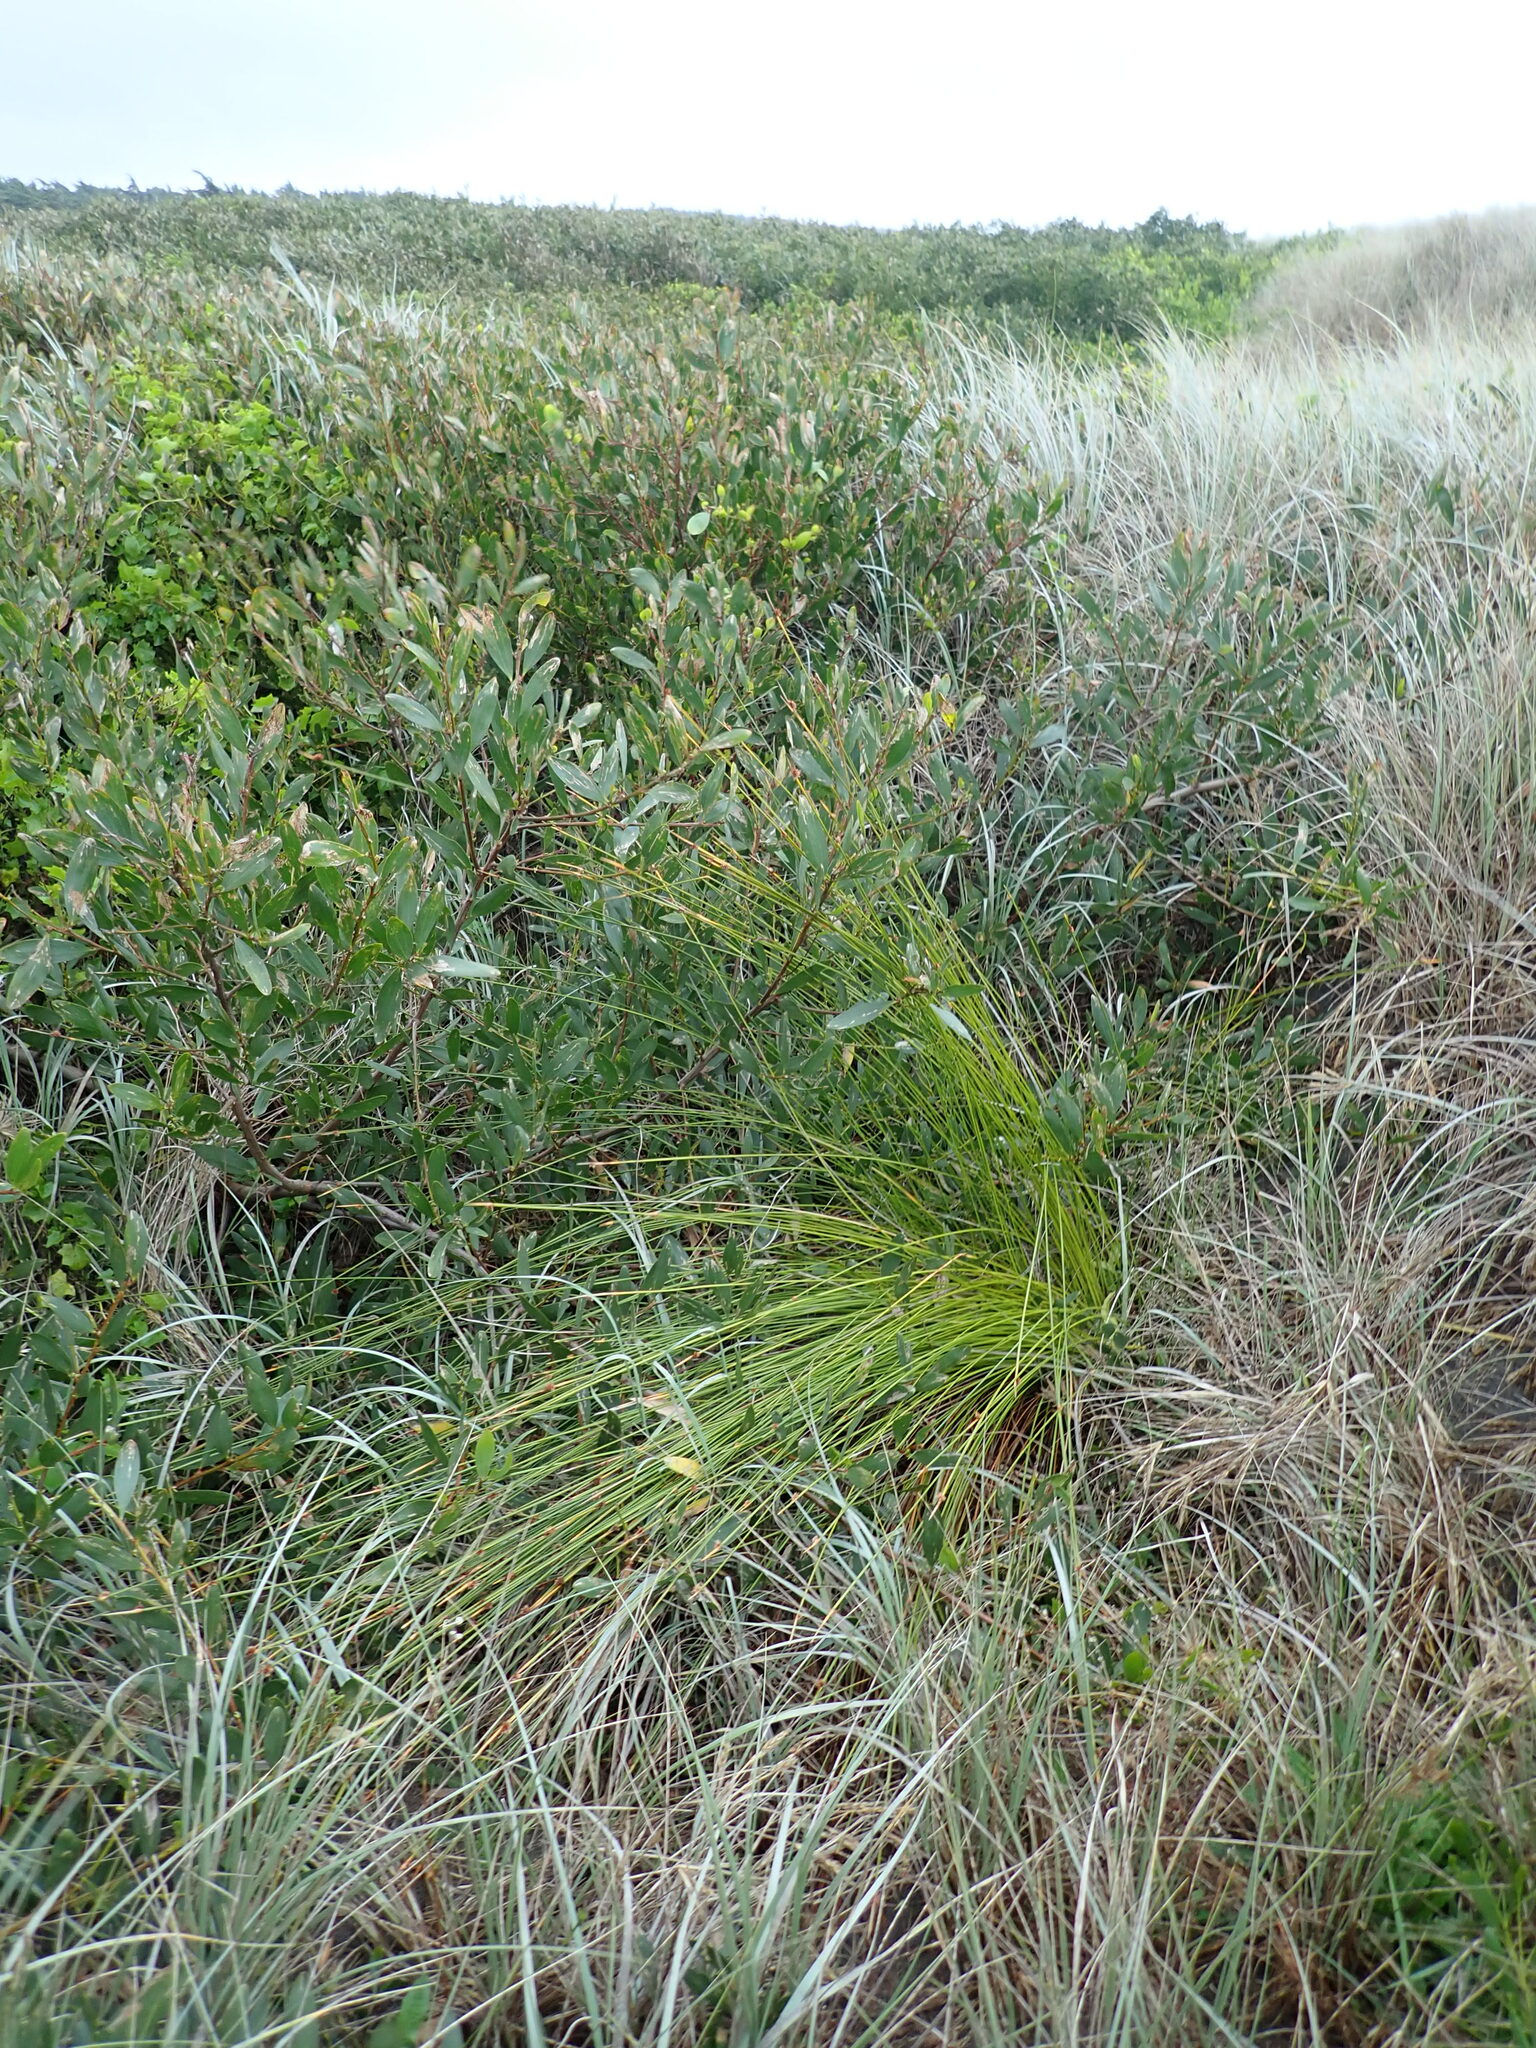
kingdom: Plantae
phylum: Tracheophyta
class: Liliopsida
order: Poales
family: Cyperaceae
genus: Ficinia
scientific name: Ficinia nodosa
